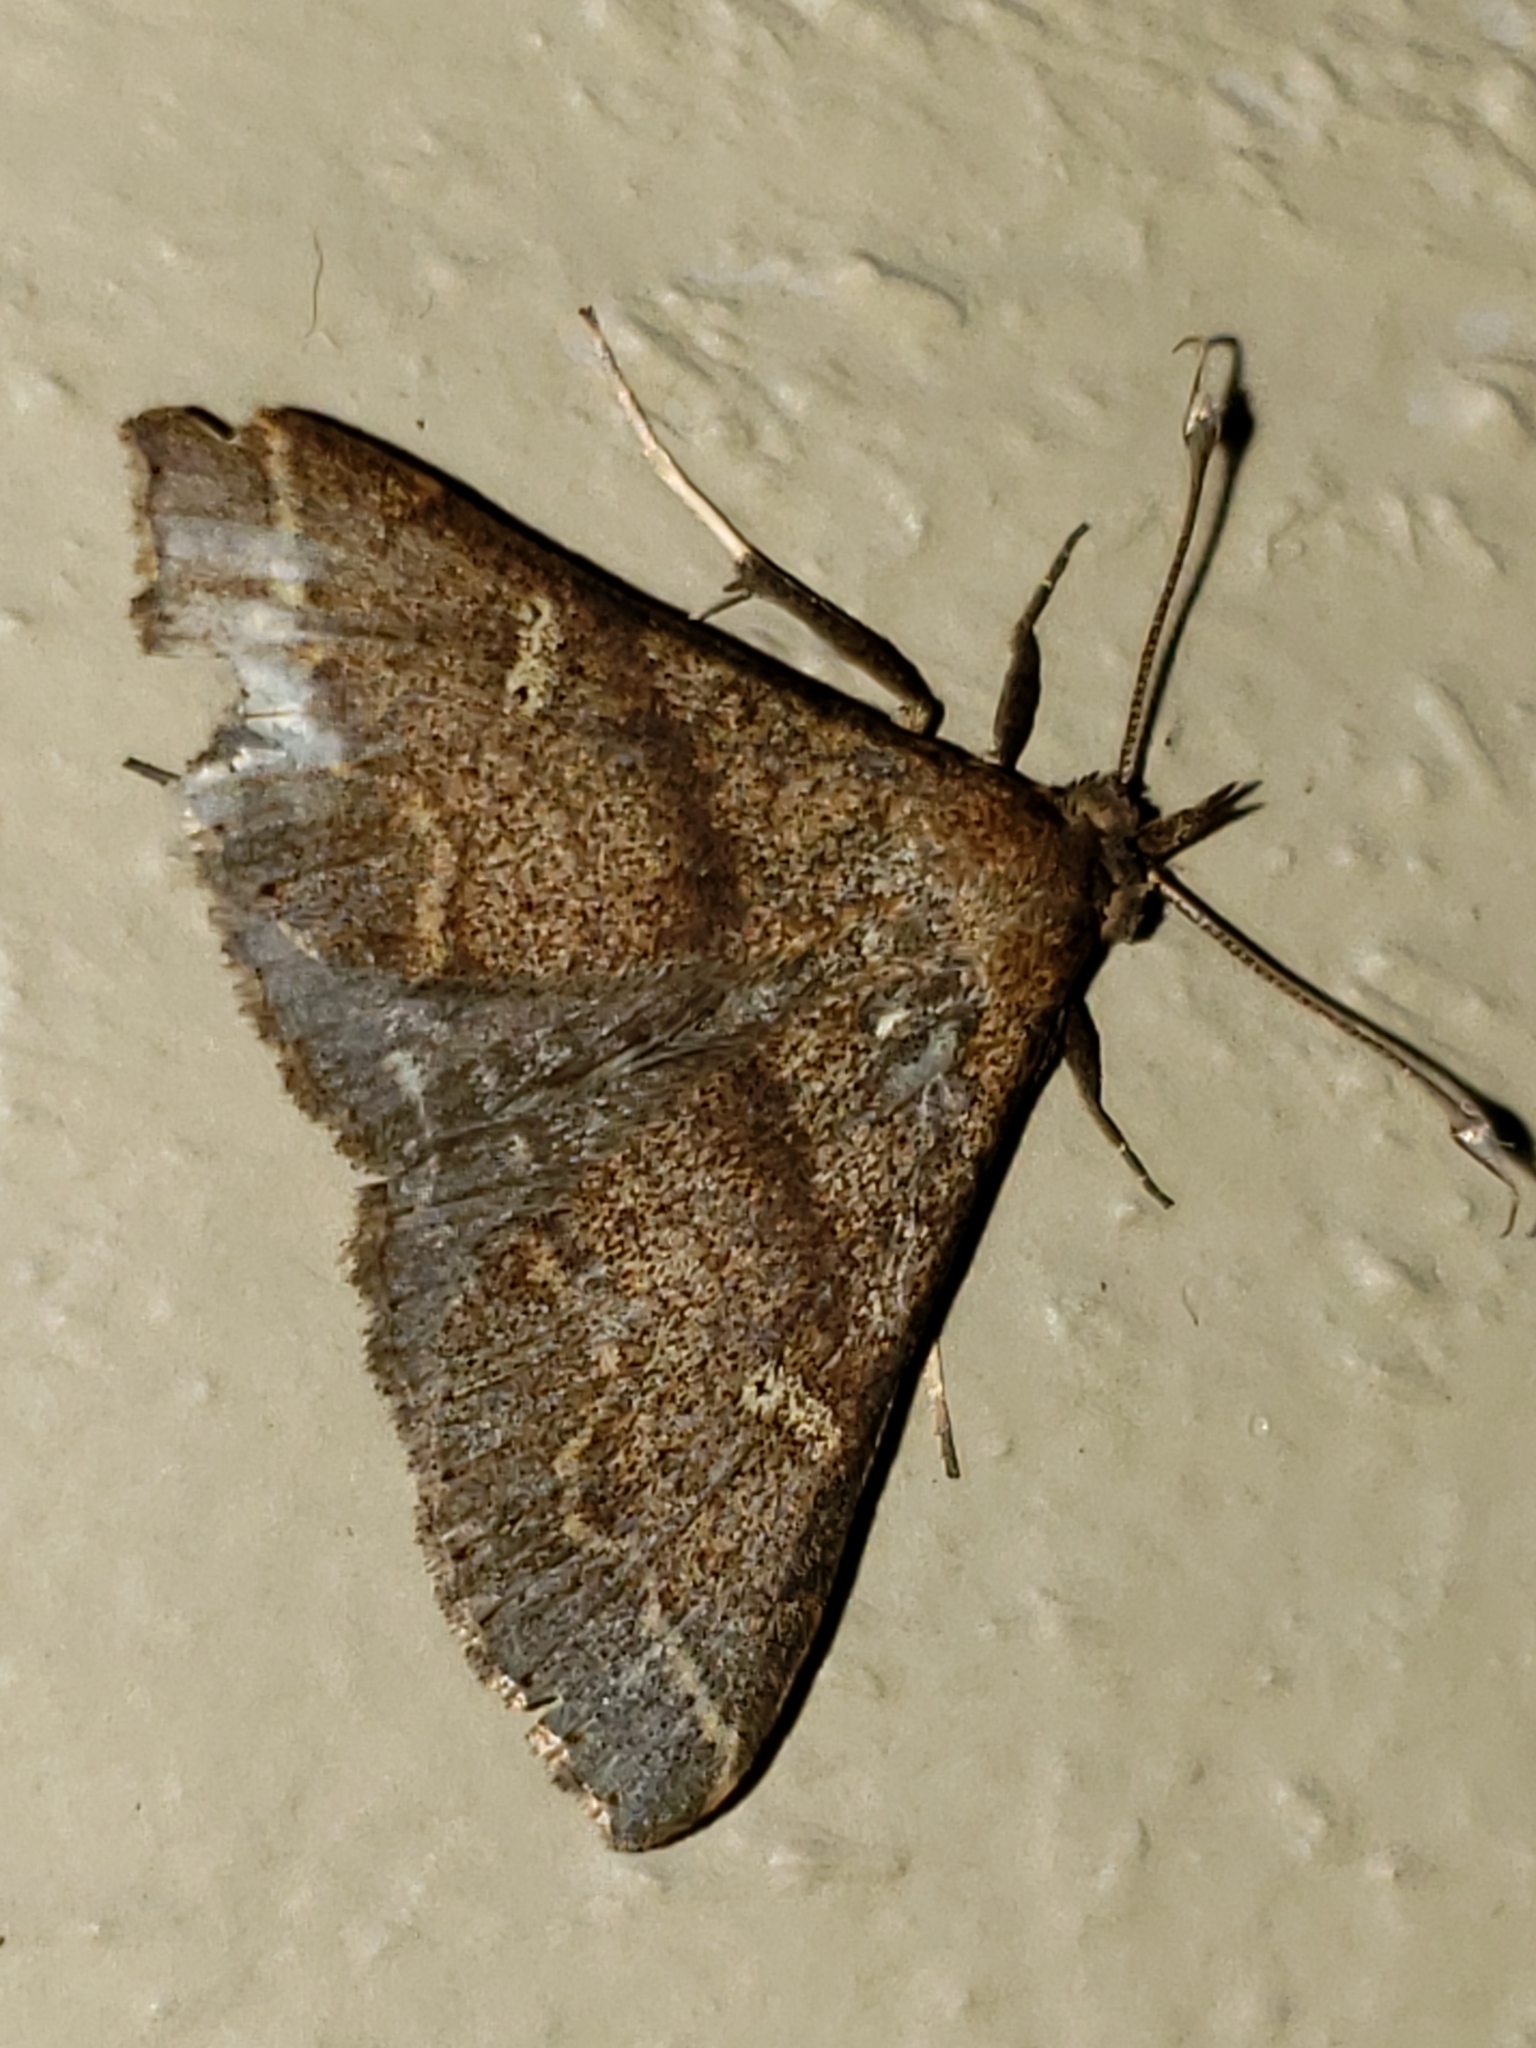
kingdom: Animalia
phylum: Arthropoda
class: Insecta
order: Lepidoptera
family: Erebidae
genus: Renia
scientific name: Renia discoloralis
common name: Discolored renia moth
